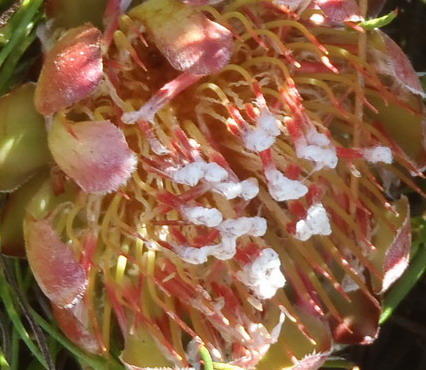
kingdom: Plantae
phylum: Tracheophyta
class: Magnoliopsida
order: Proteales
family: Proteaceae
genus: Protea
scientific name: Protea montana
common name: Swartberg sugarbush
